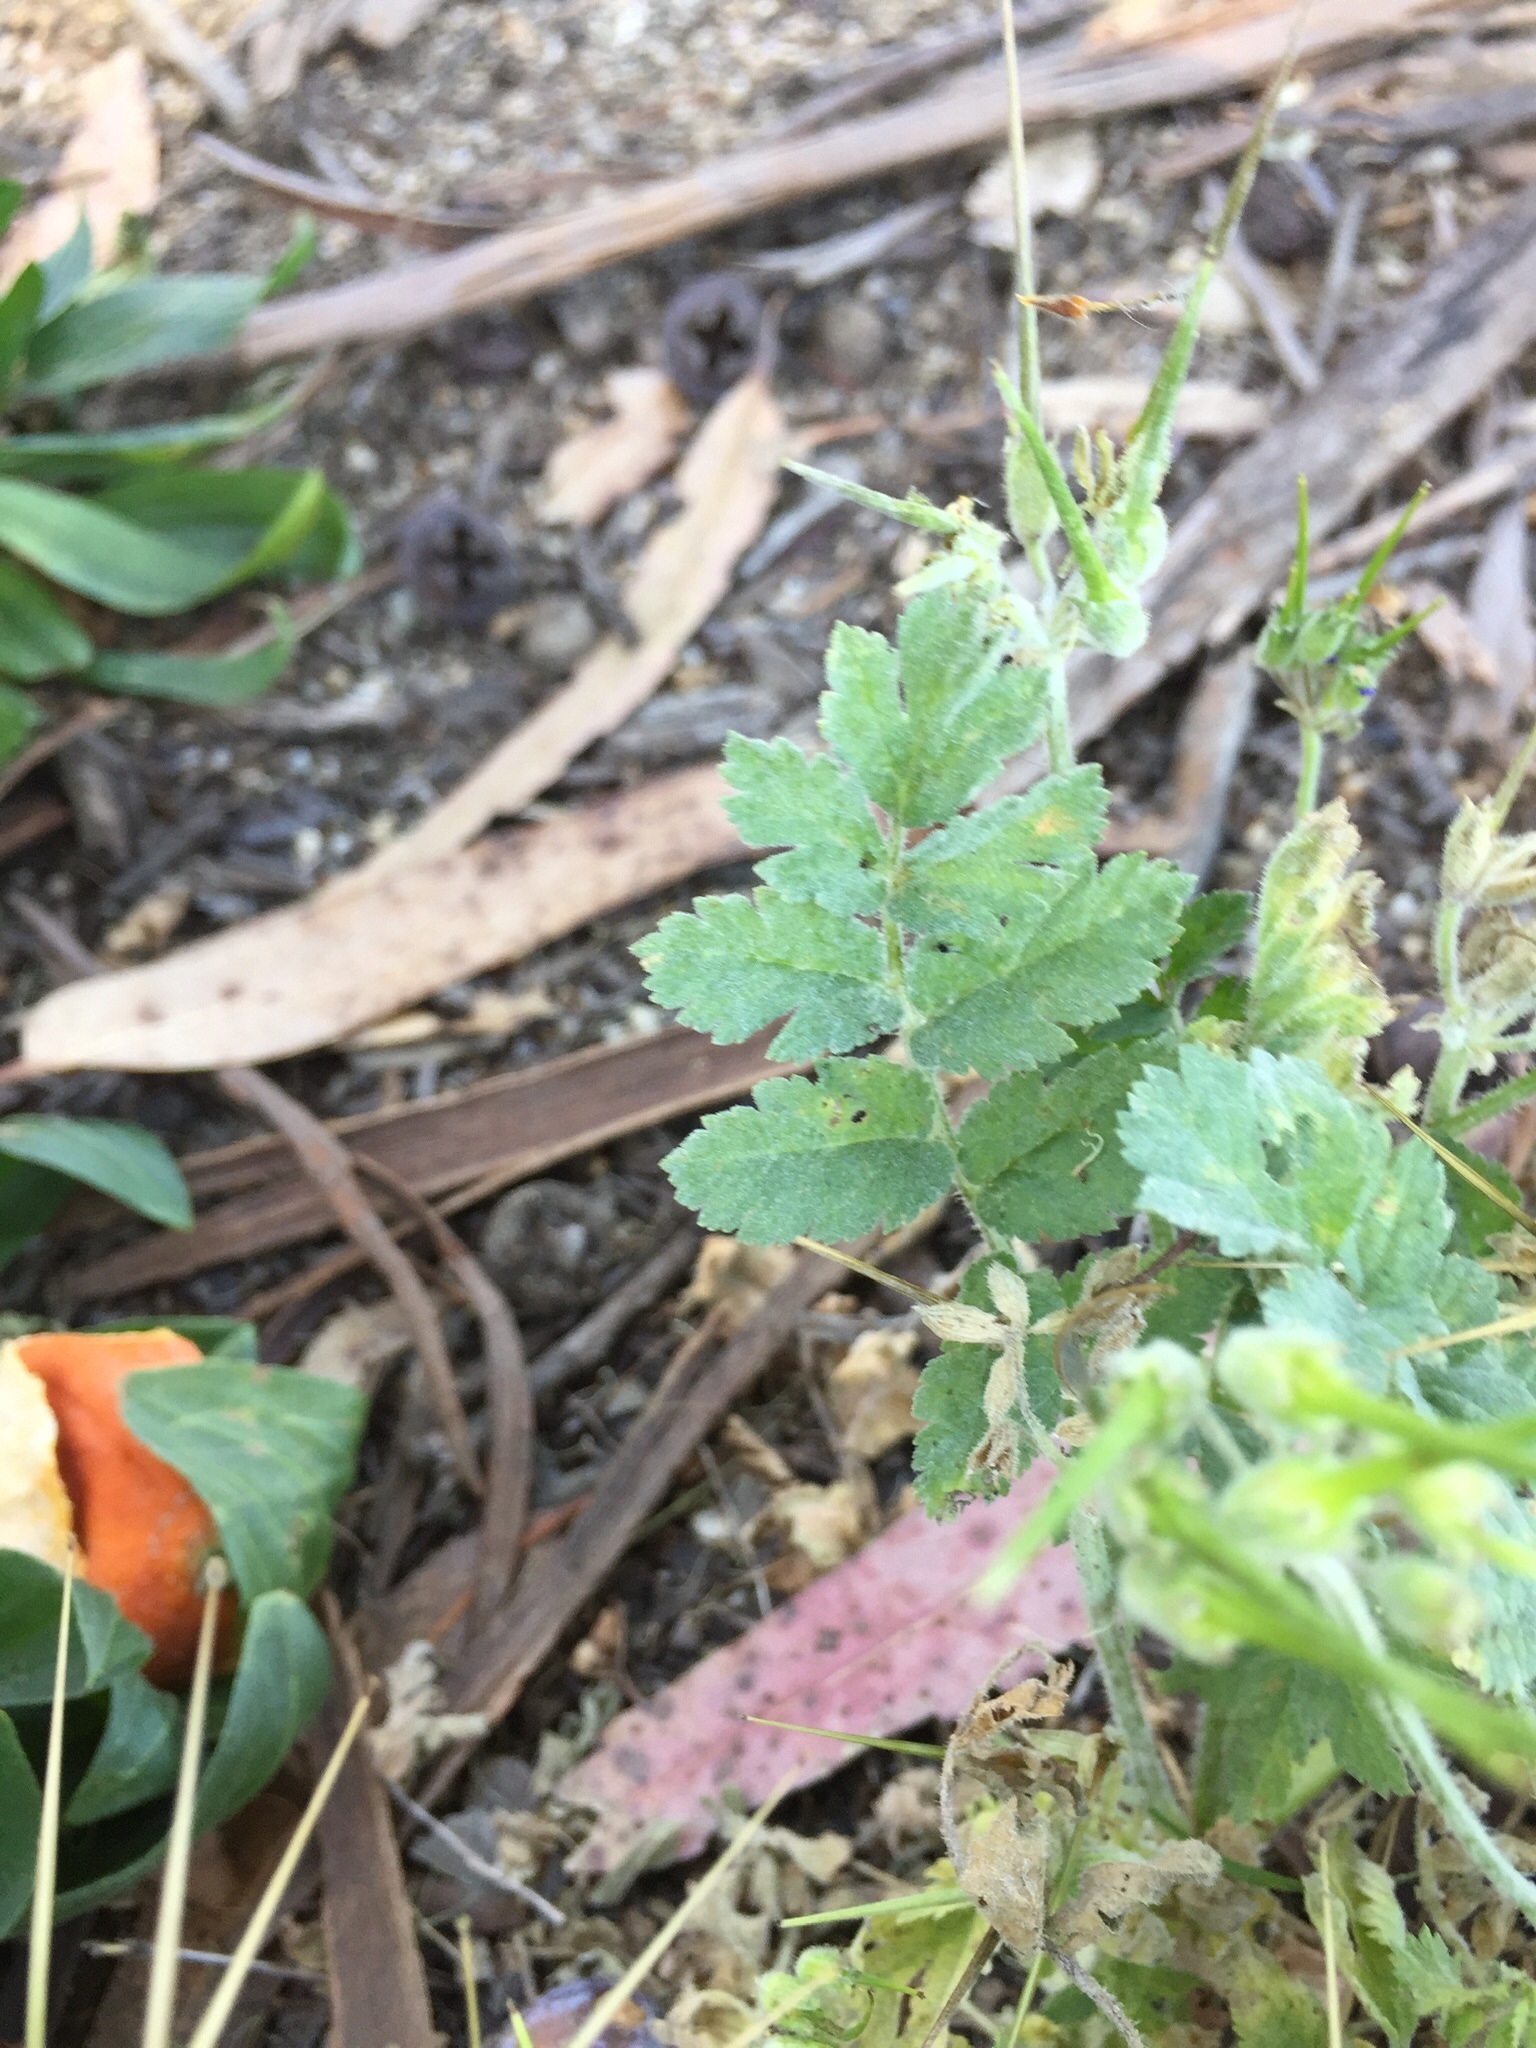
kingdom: Plantae
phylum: Tracheophyta
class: Magnoliopsida
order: Geraniales
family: Geraniaceae
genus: Erodium
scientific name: Erodium moschatum
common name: Musk stork's-bill
